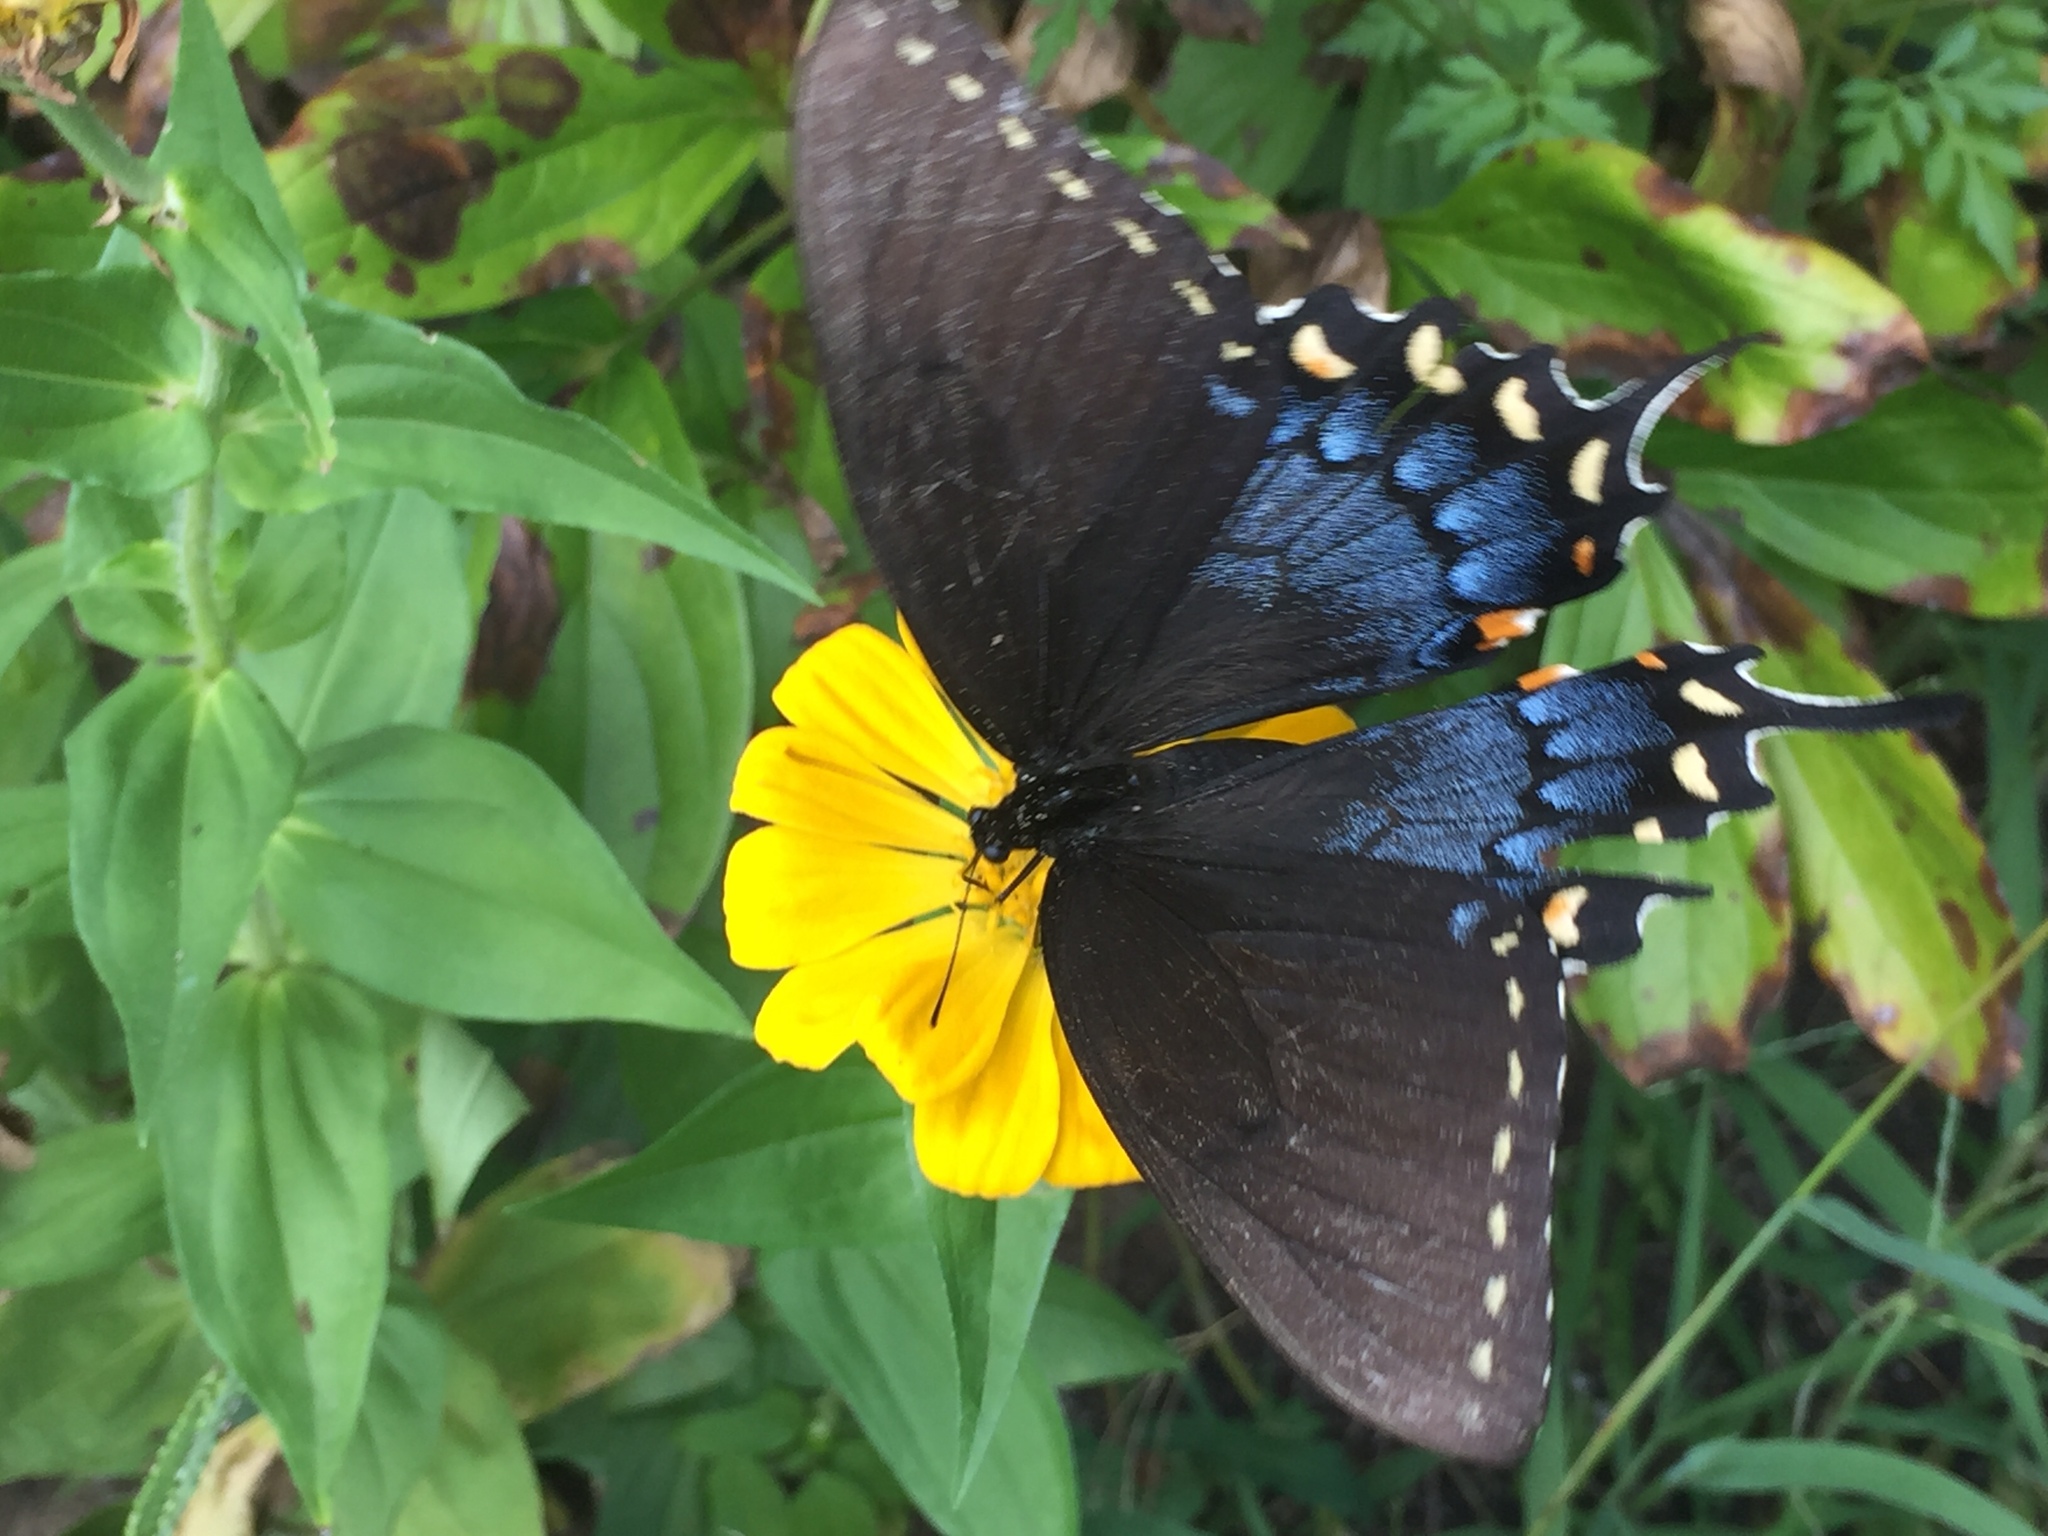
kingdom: Animalia
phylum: Arthropoda
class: Insecta
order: Lepidoptera
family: Papilionidae
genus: Papilio
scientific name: Papilio glaucus
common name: Tiger swallowtail
